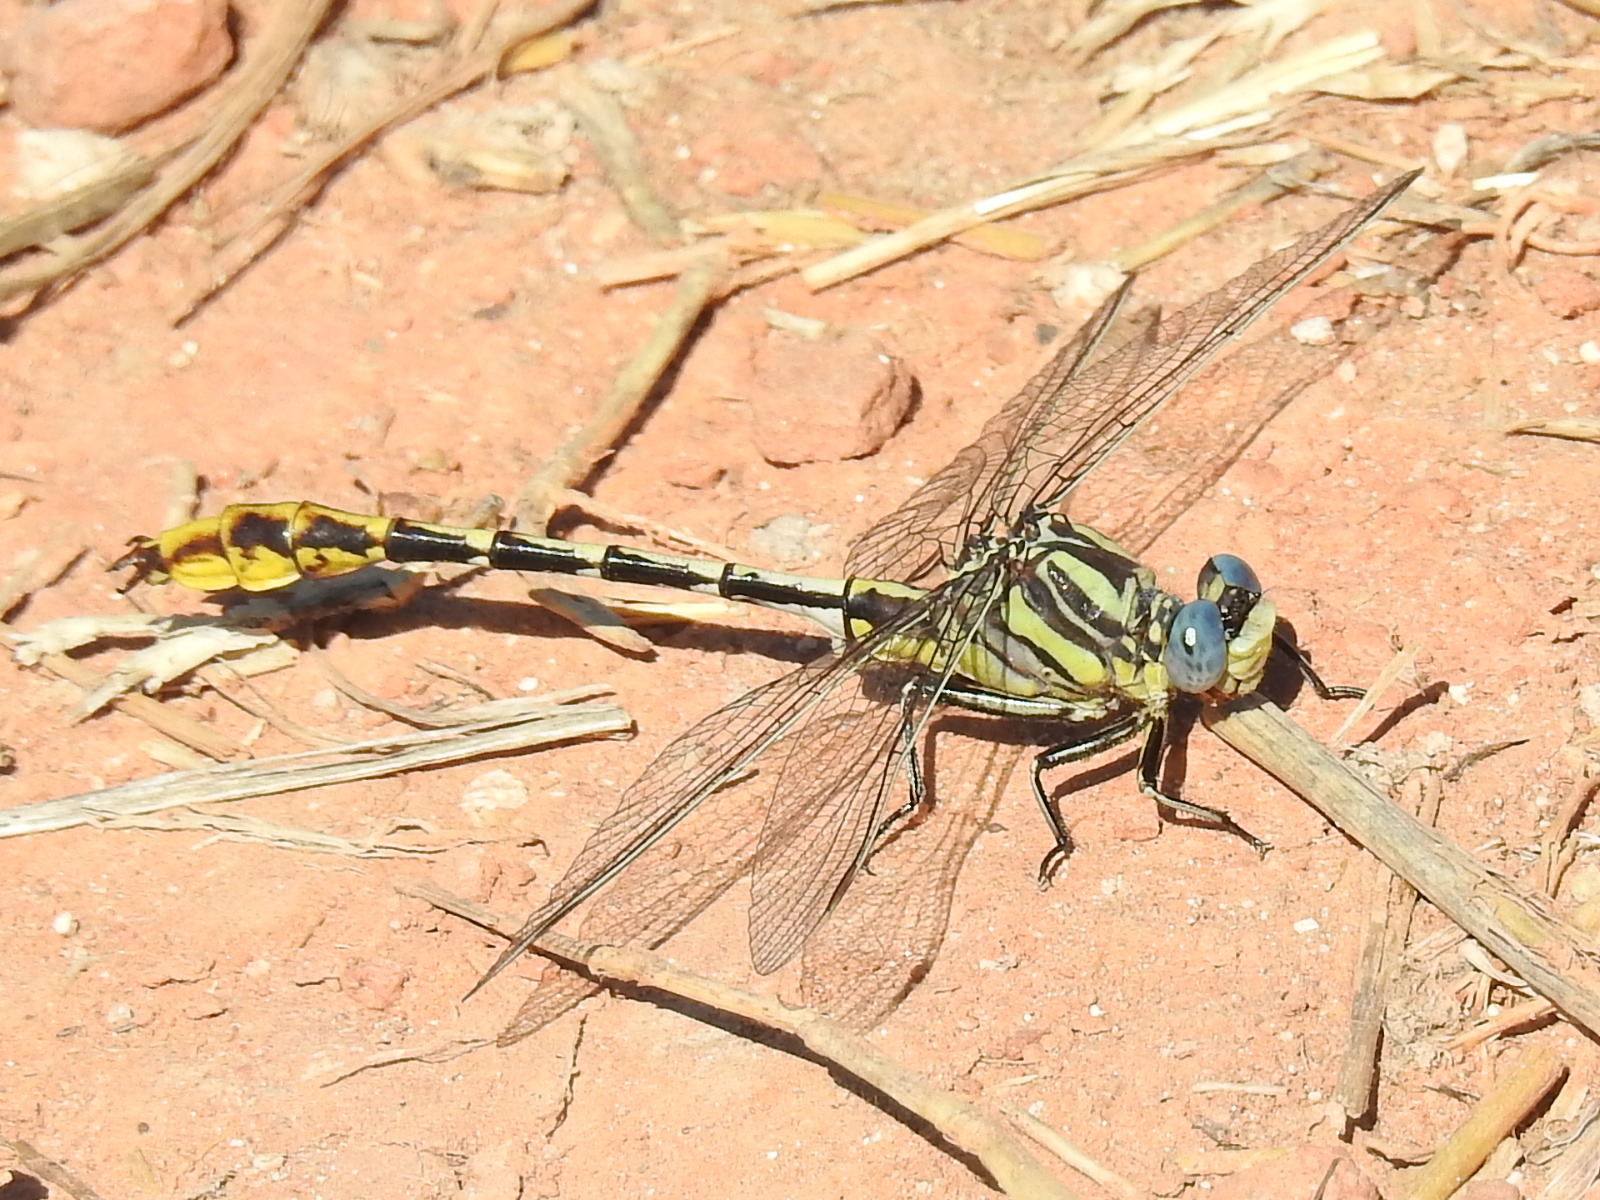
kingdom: Animalia
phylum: Arthropoda
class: Insecta
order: Odonata
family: Gomphidae
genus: Phanogomphus
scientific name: Phanogomphus militaris
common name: Sulphur-tipped clubtail
